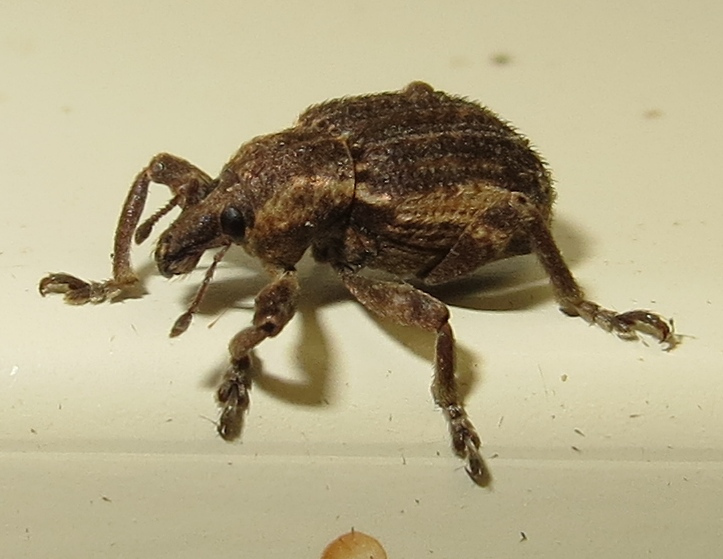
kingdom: Animalia
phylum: Arthropoda
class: Insecta
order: Coleoptera
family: Curculionidae
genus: Brachypera
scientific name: Brachypera zoilus
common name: Clover leaf weevil
